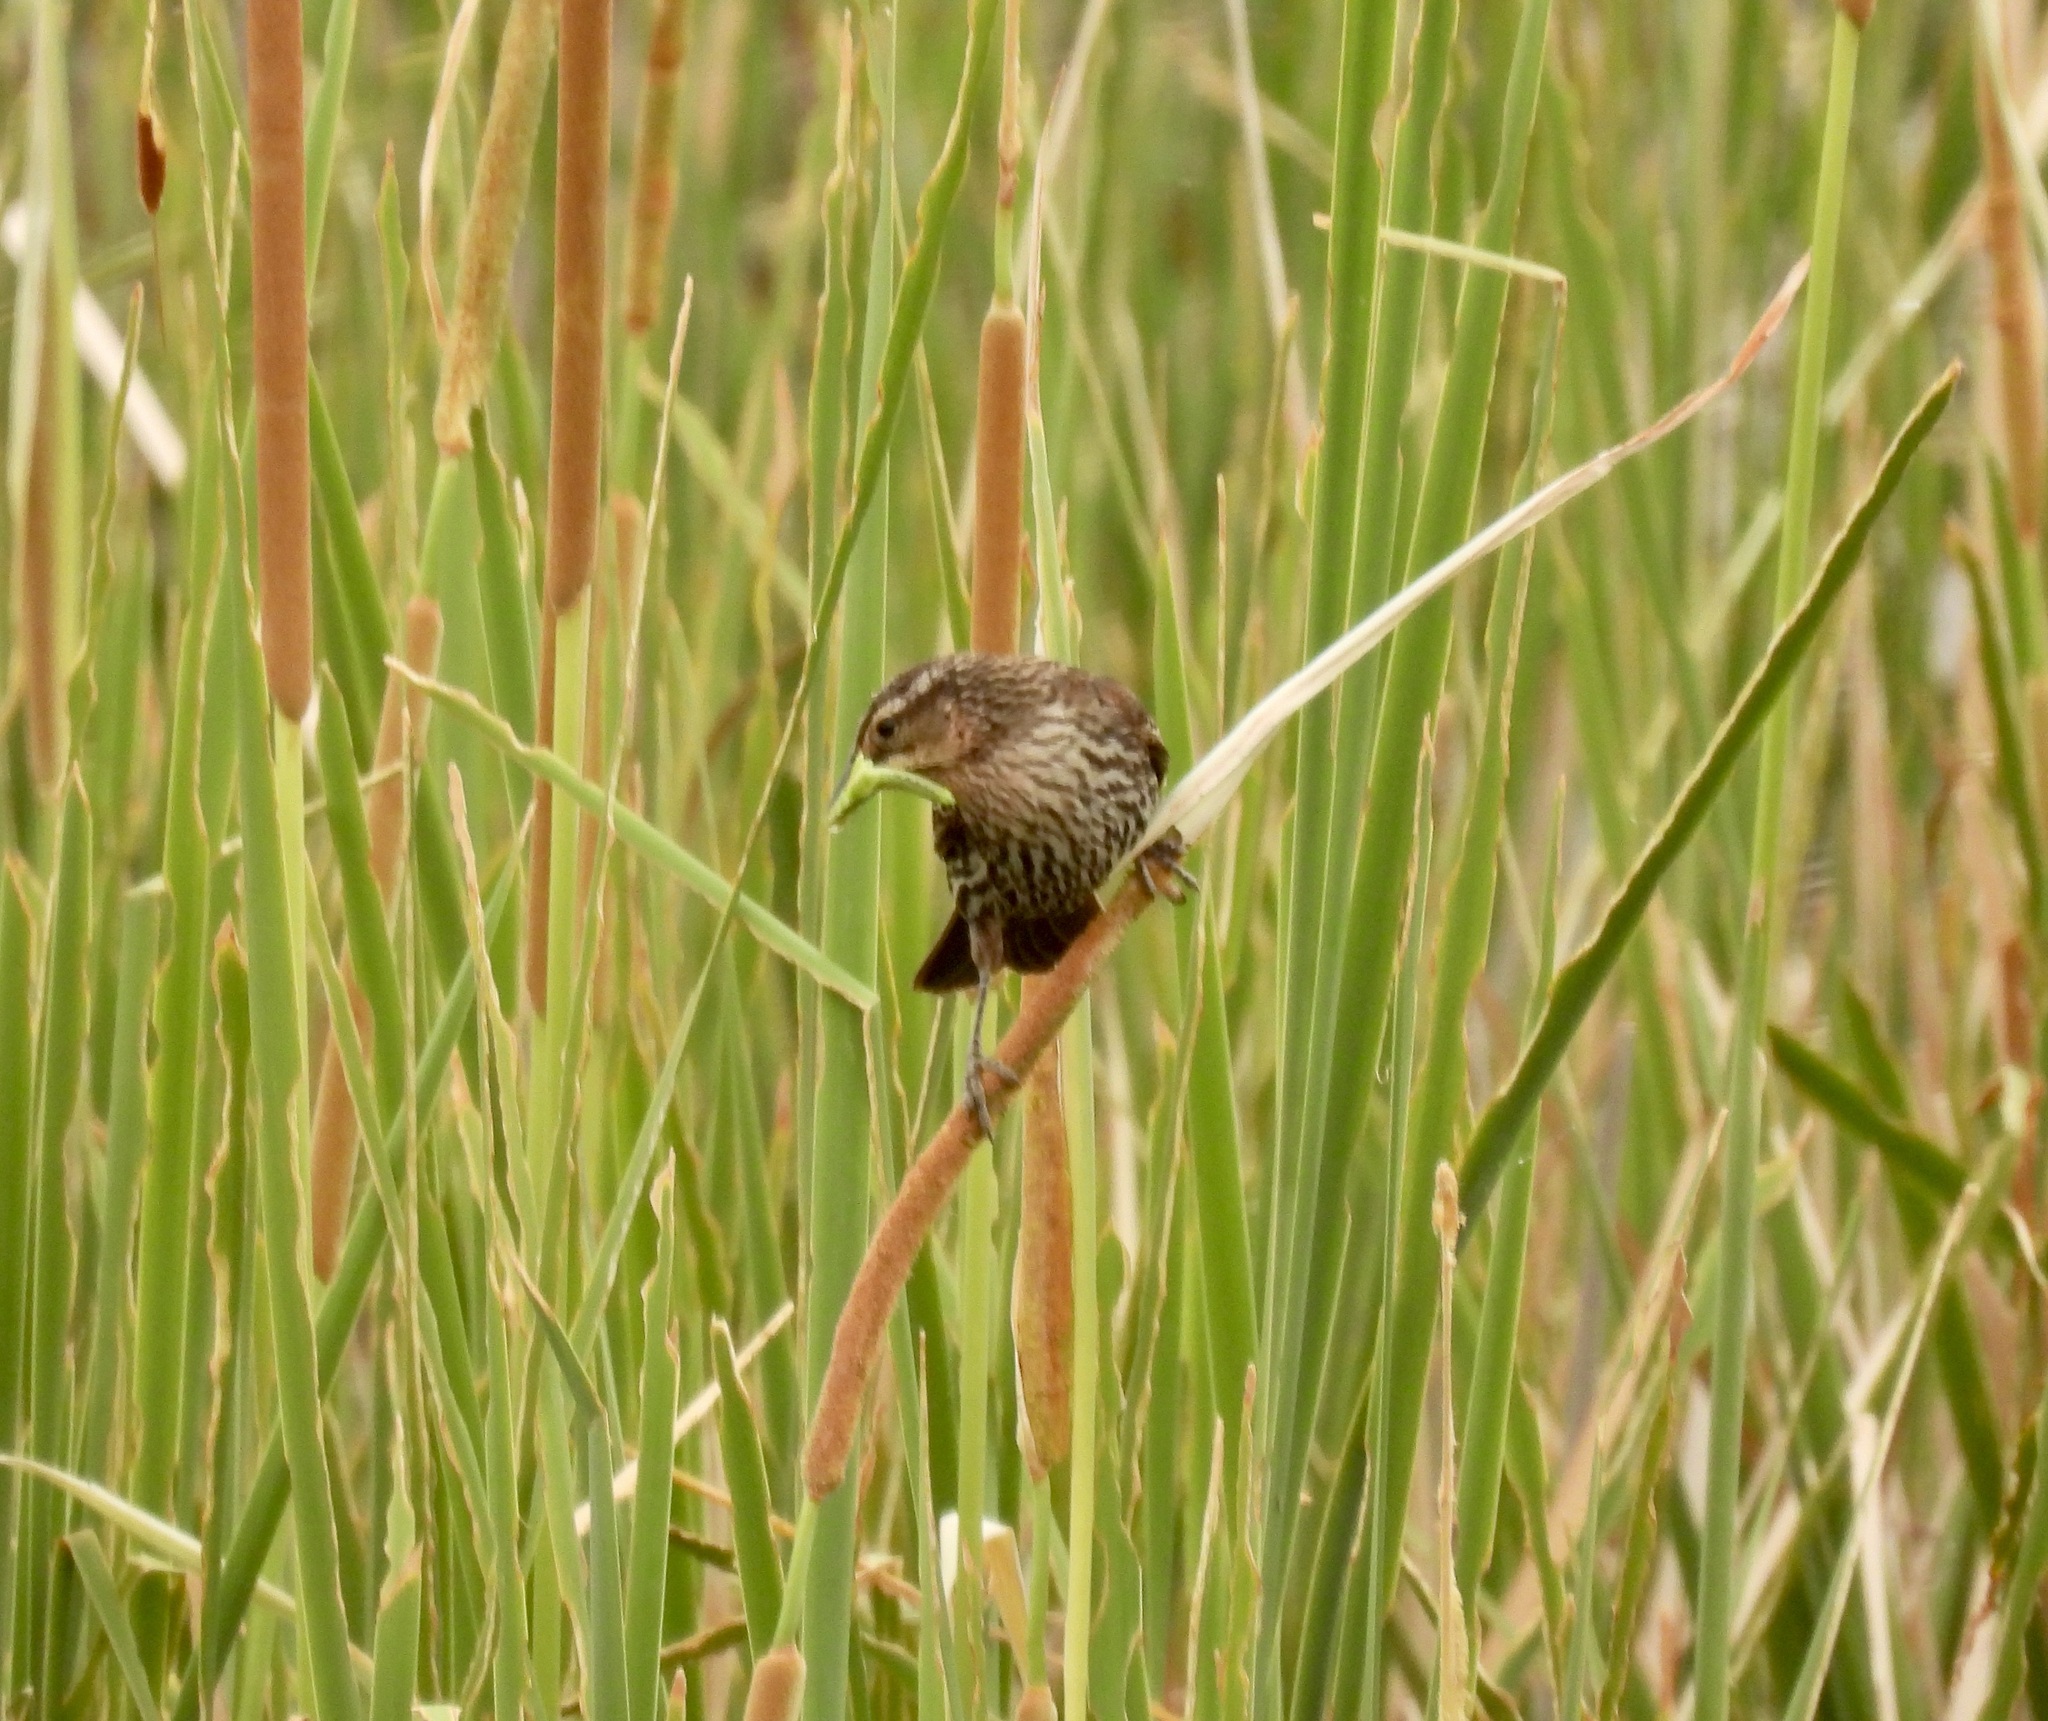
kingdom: Animalia
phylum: Chordata
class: Aves
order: Passeriformes
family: Icteridae
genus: Agelaius
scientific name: Agelaius phoeniceus
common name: Red-winged blackbird
